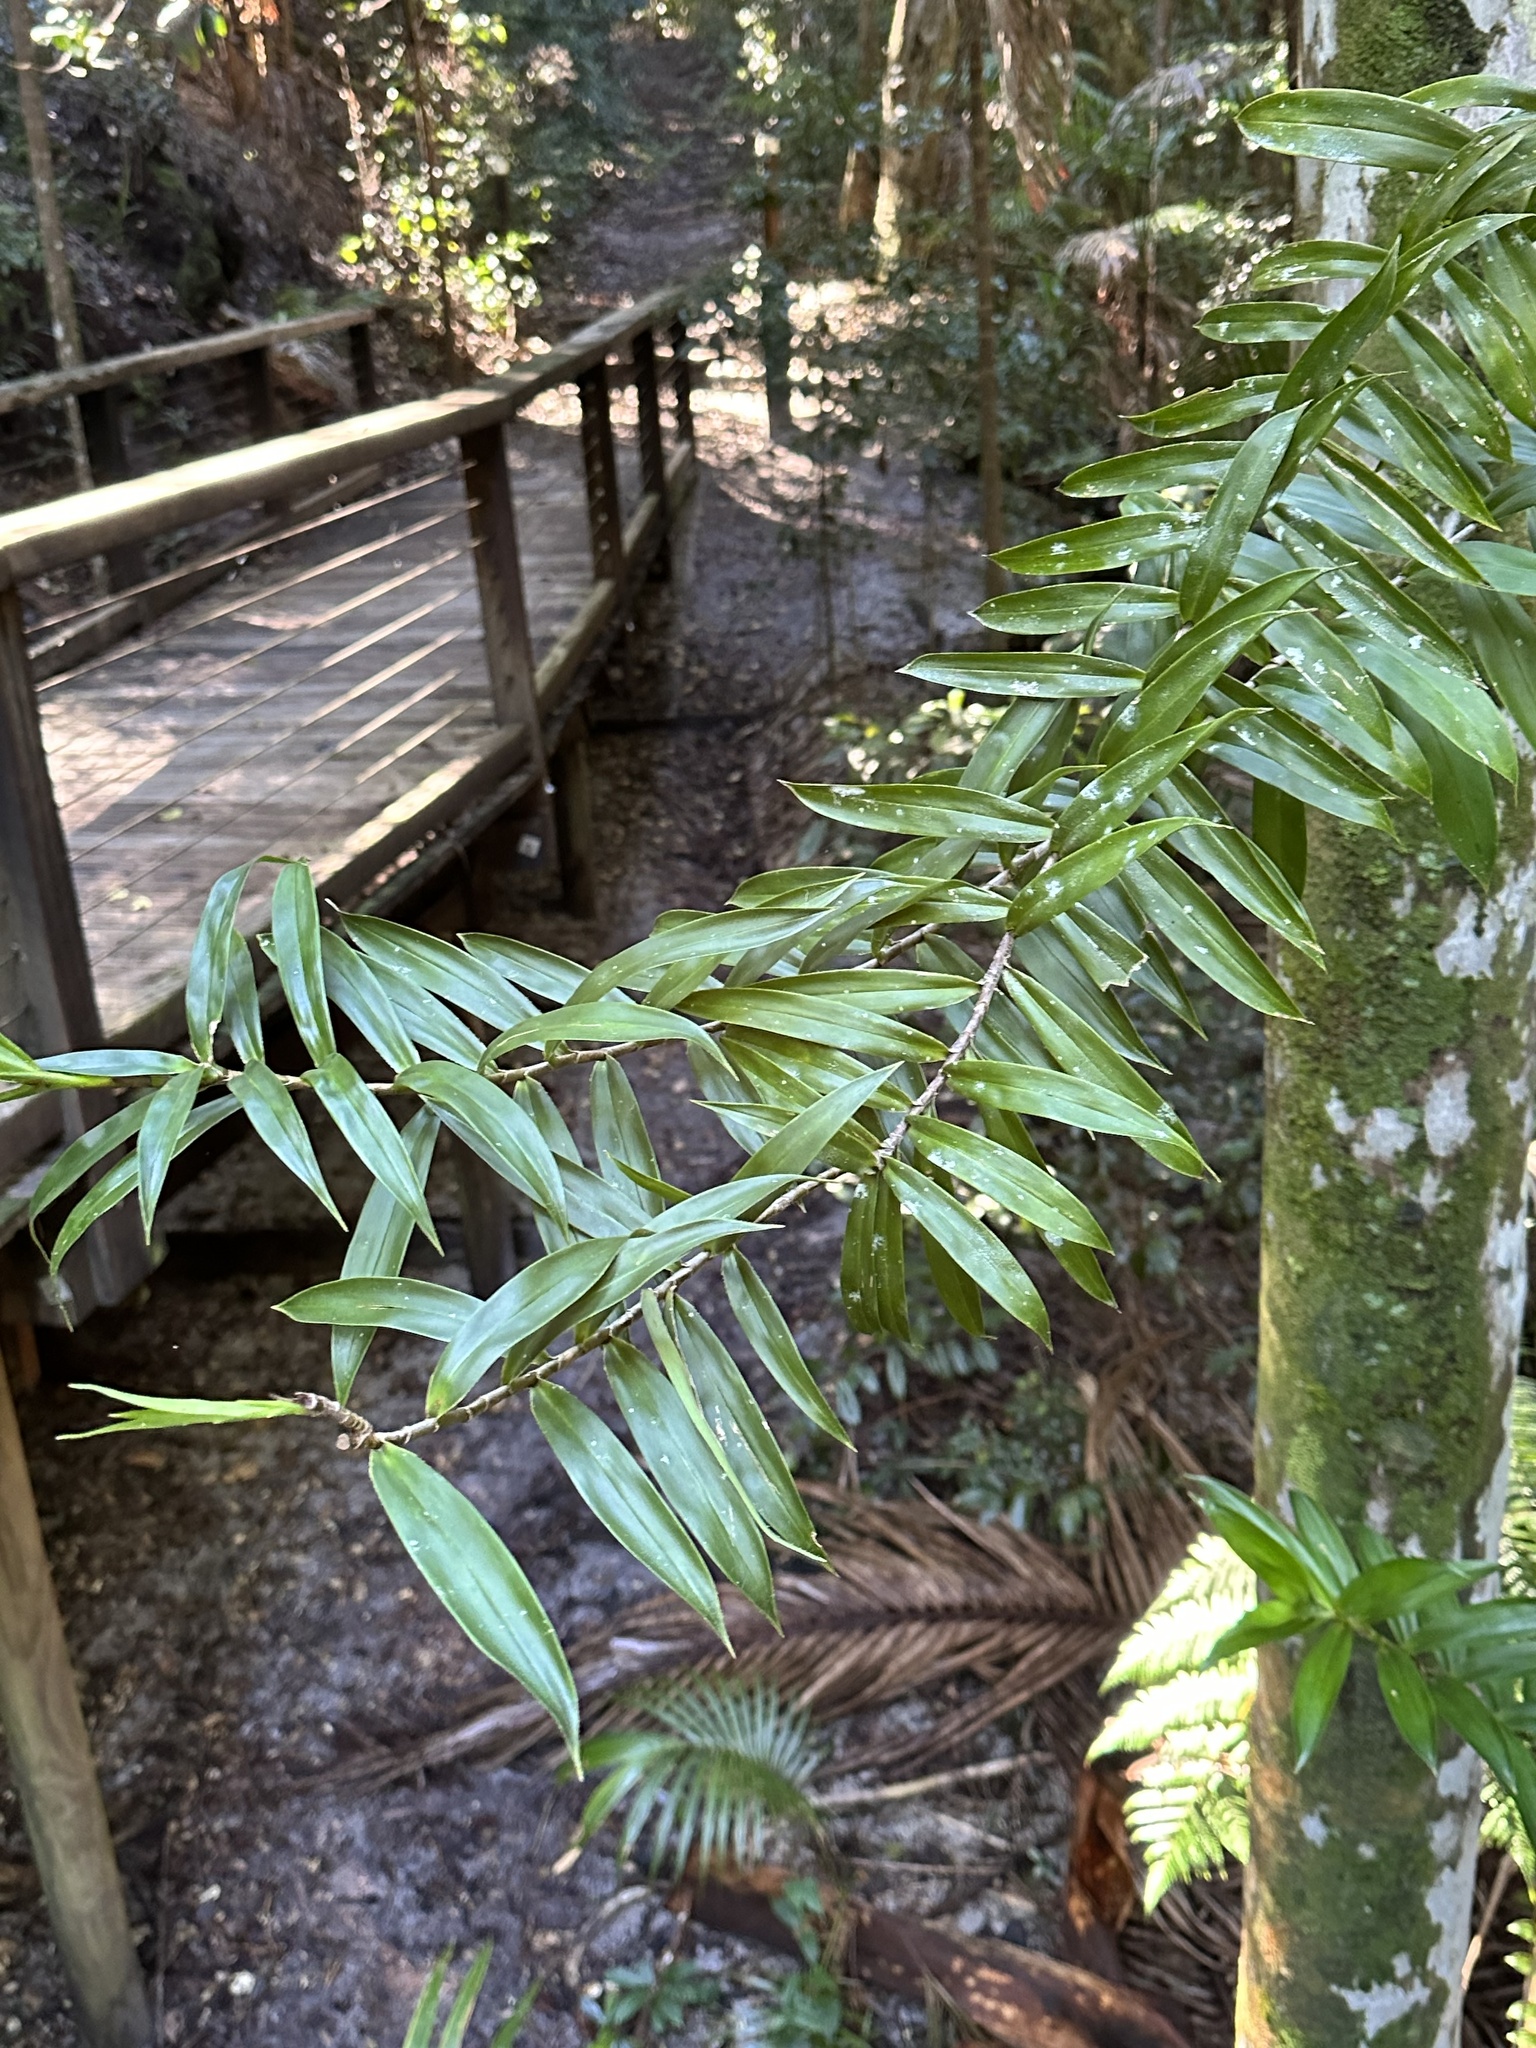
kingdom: Plantae
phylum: Tracheophyta
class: Liliopsida
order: Pandanales
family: Pandanaceae
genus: Freycinetia
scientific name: Freycinetia scandens
